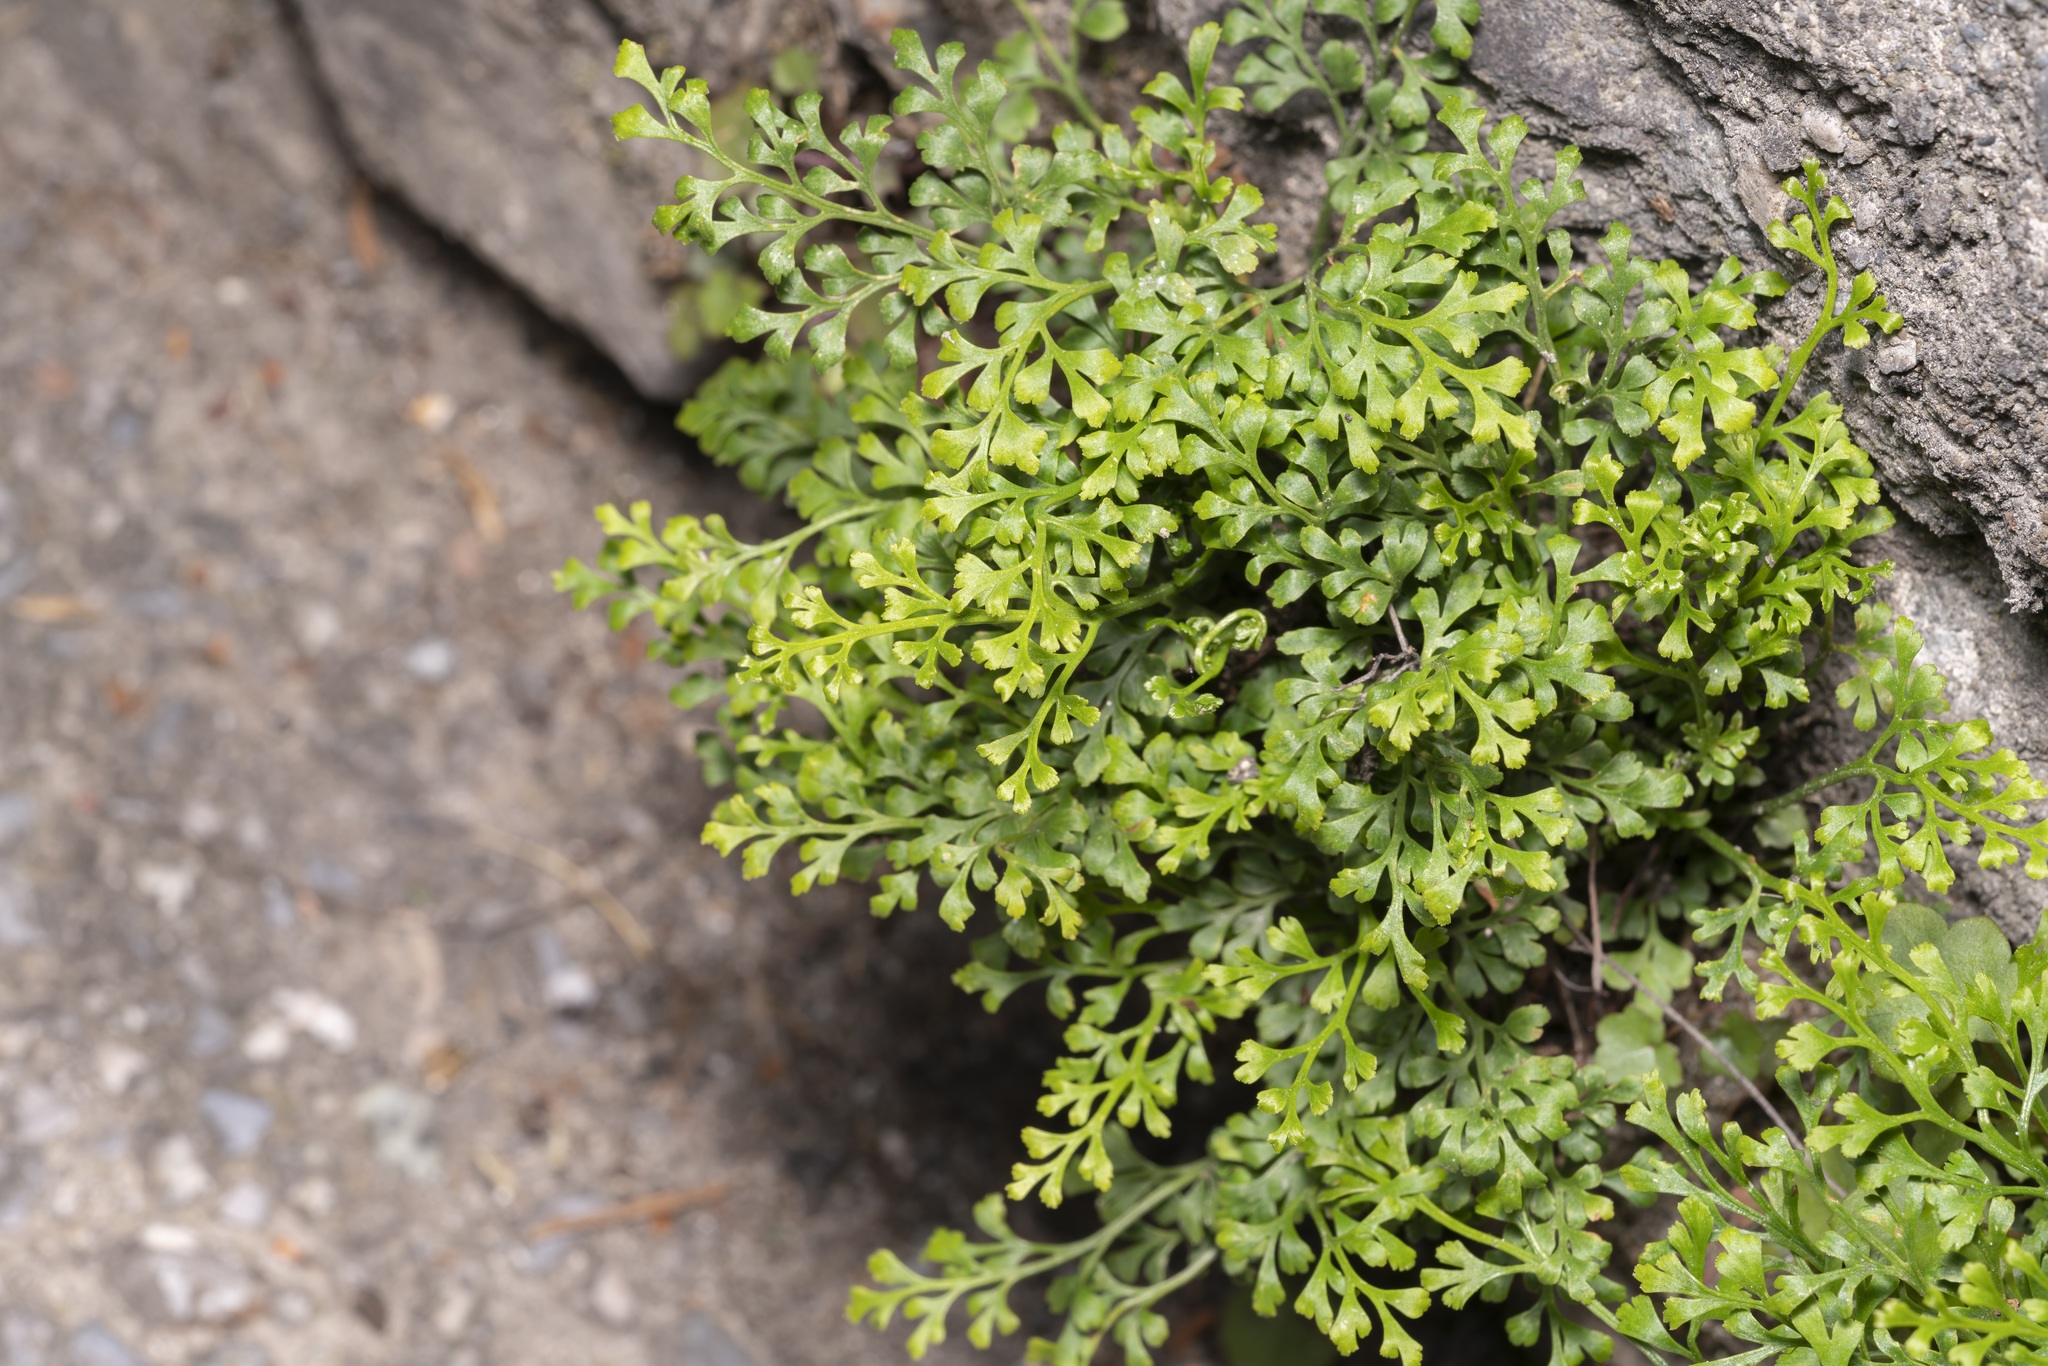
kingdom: Plantae
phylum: Tracheophyta
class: Polypodiopsida
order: Polypodiales
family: Aspleniaceae
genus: Asplenium
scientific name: Asplenium ruta-muraria
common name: Wall-rue
